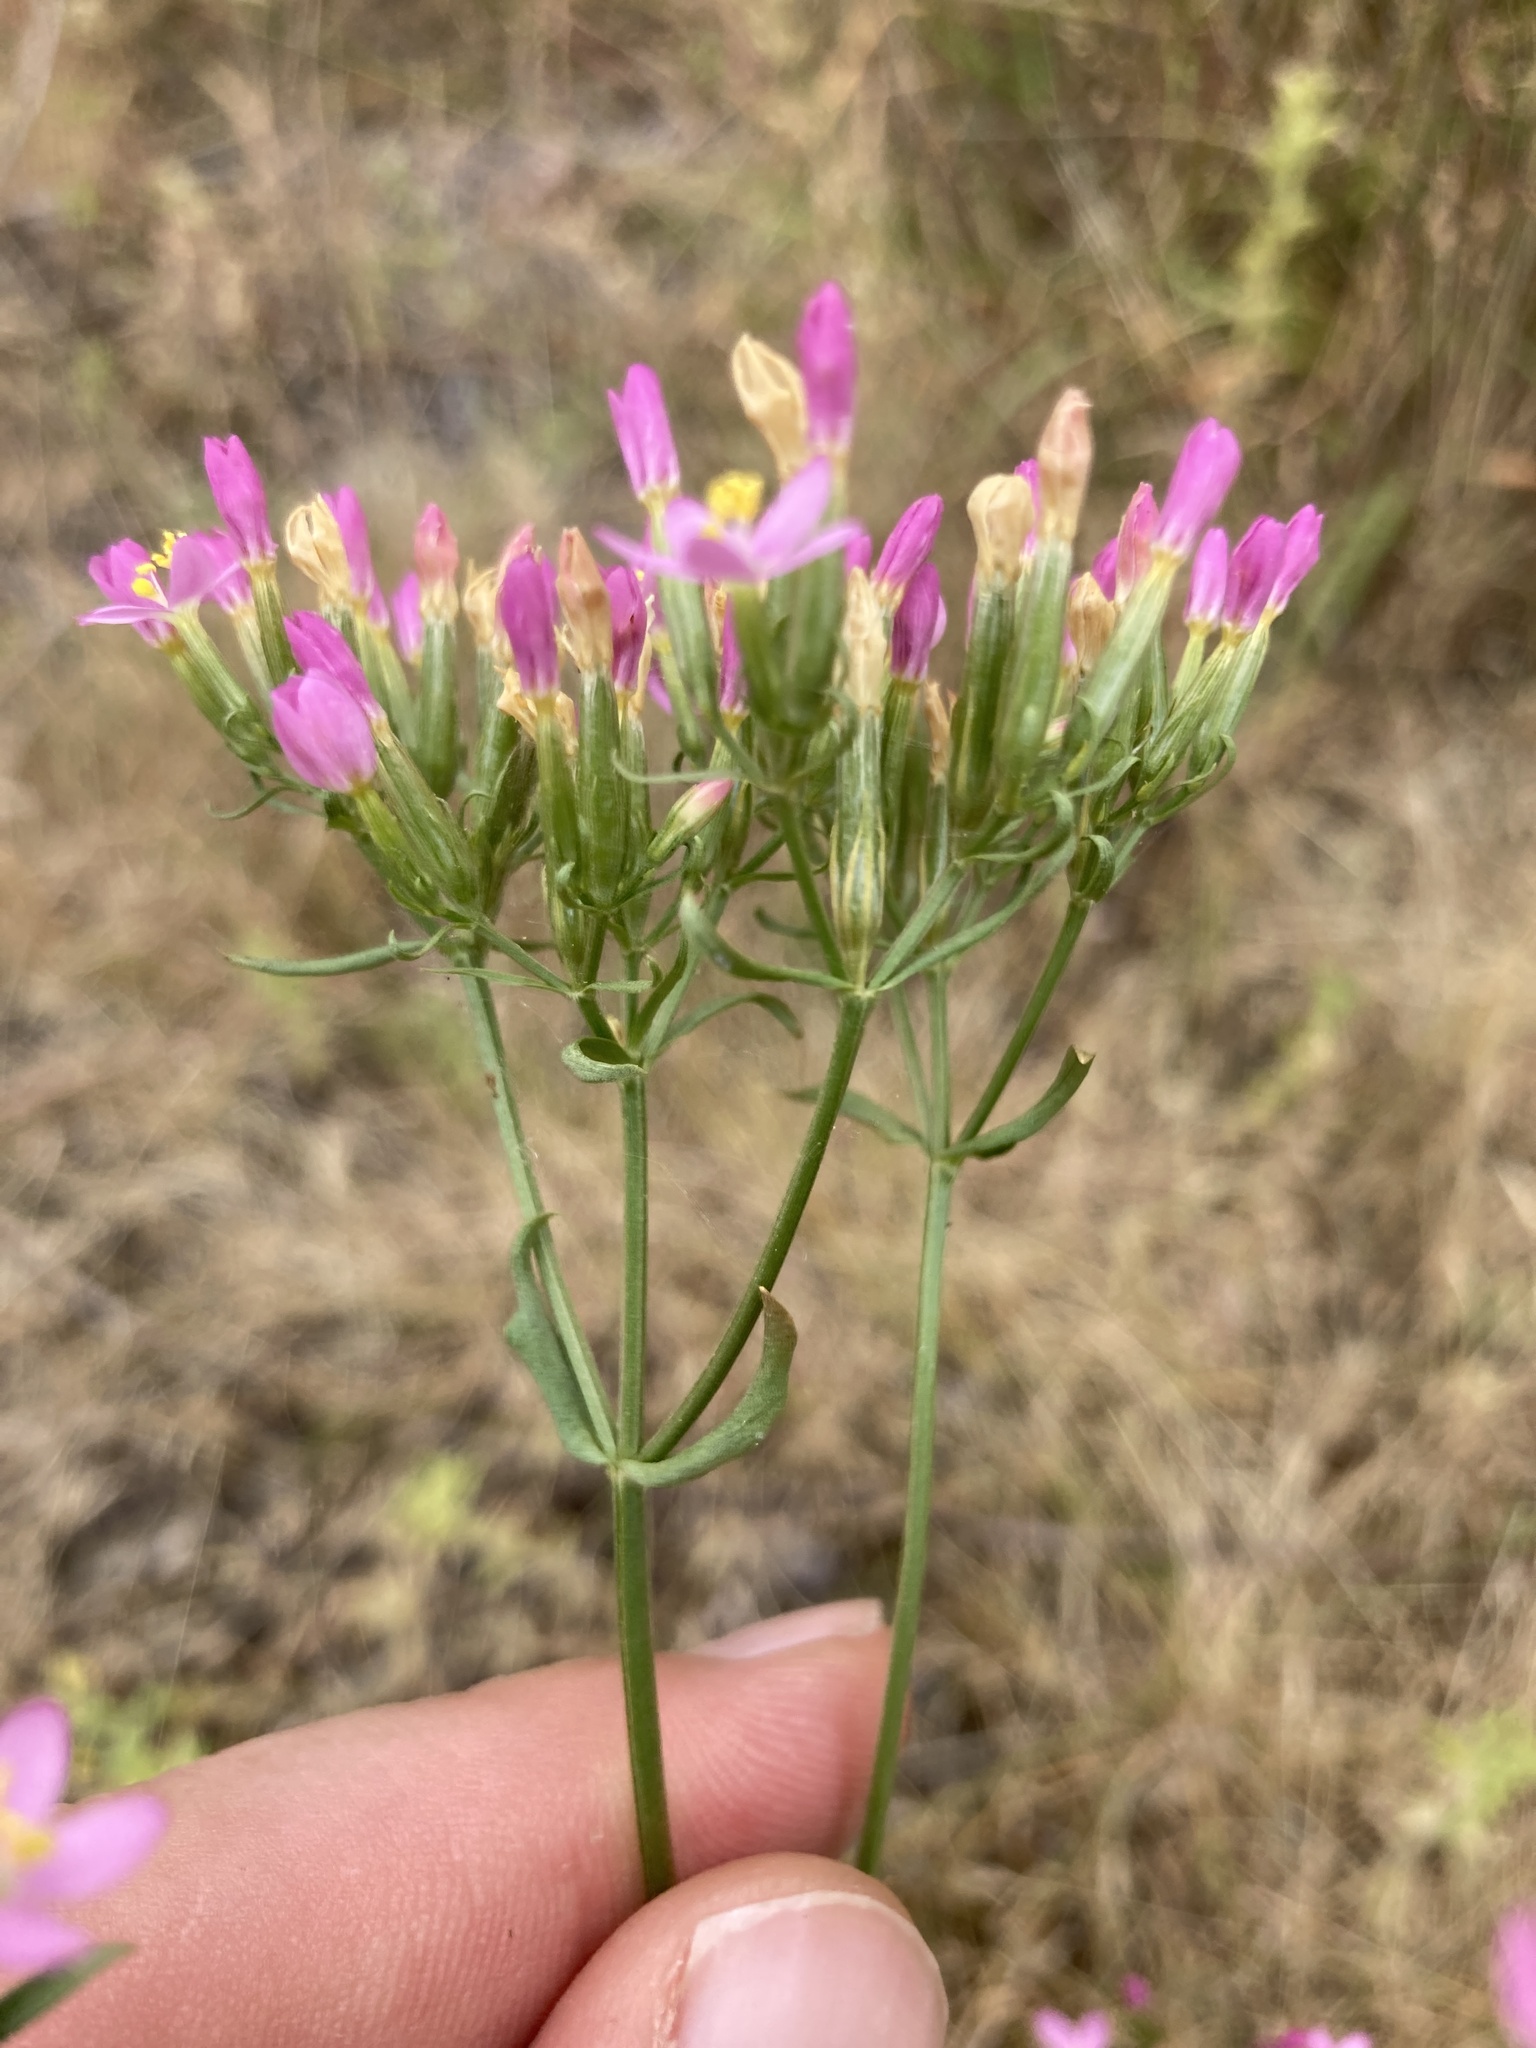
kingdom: Plantae
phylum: Tracheophyta
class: Magnoliopsida
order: Gentianales
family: Gentianaceae
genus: Centaurium
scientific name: Centaurium erythraea
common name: Common centaury
